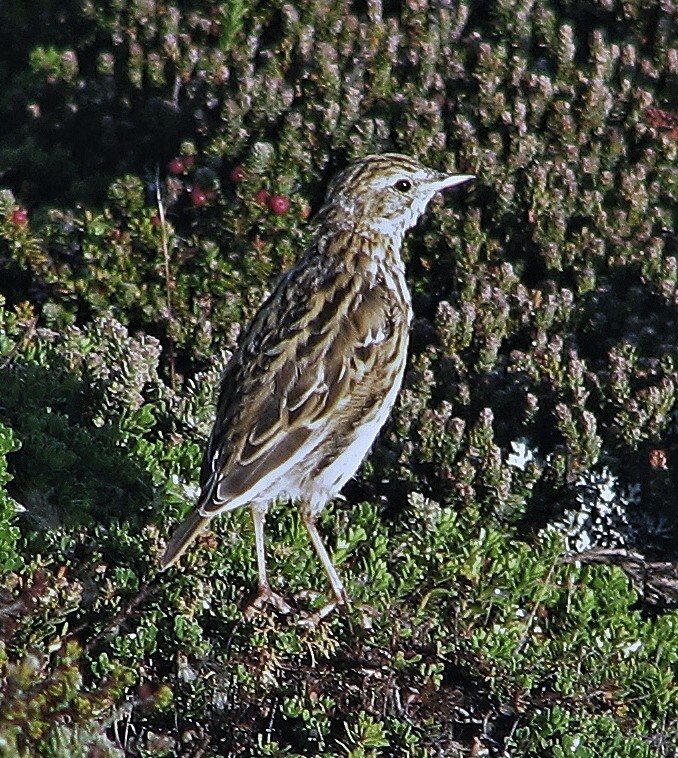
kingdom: Animalia
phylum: Chordata
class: Aves
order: Passeriformes
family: Motacillidae
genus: Anthus
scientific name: Anthus correndera
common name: Correndera pipit
